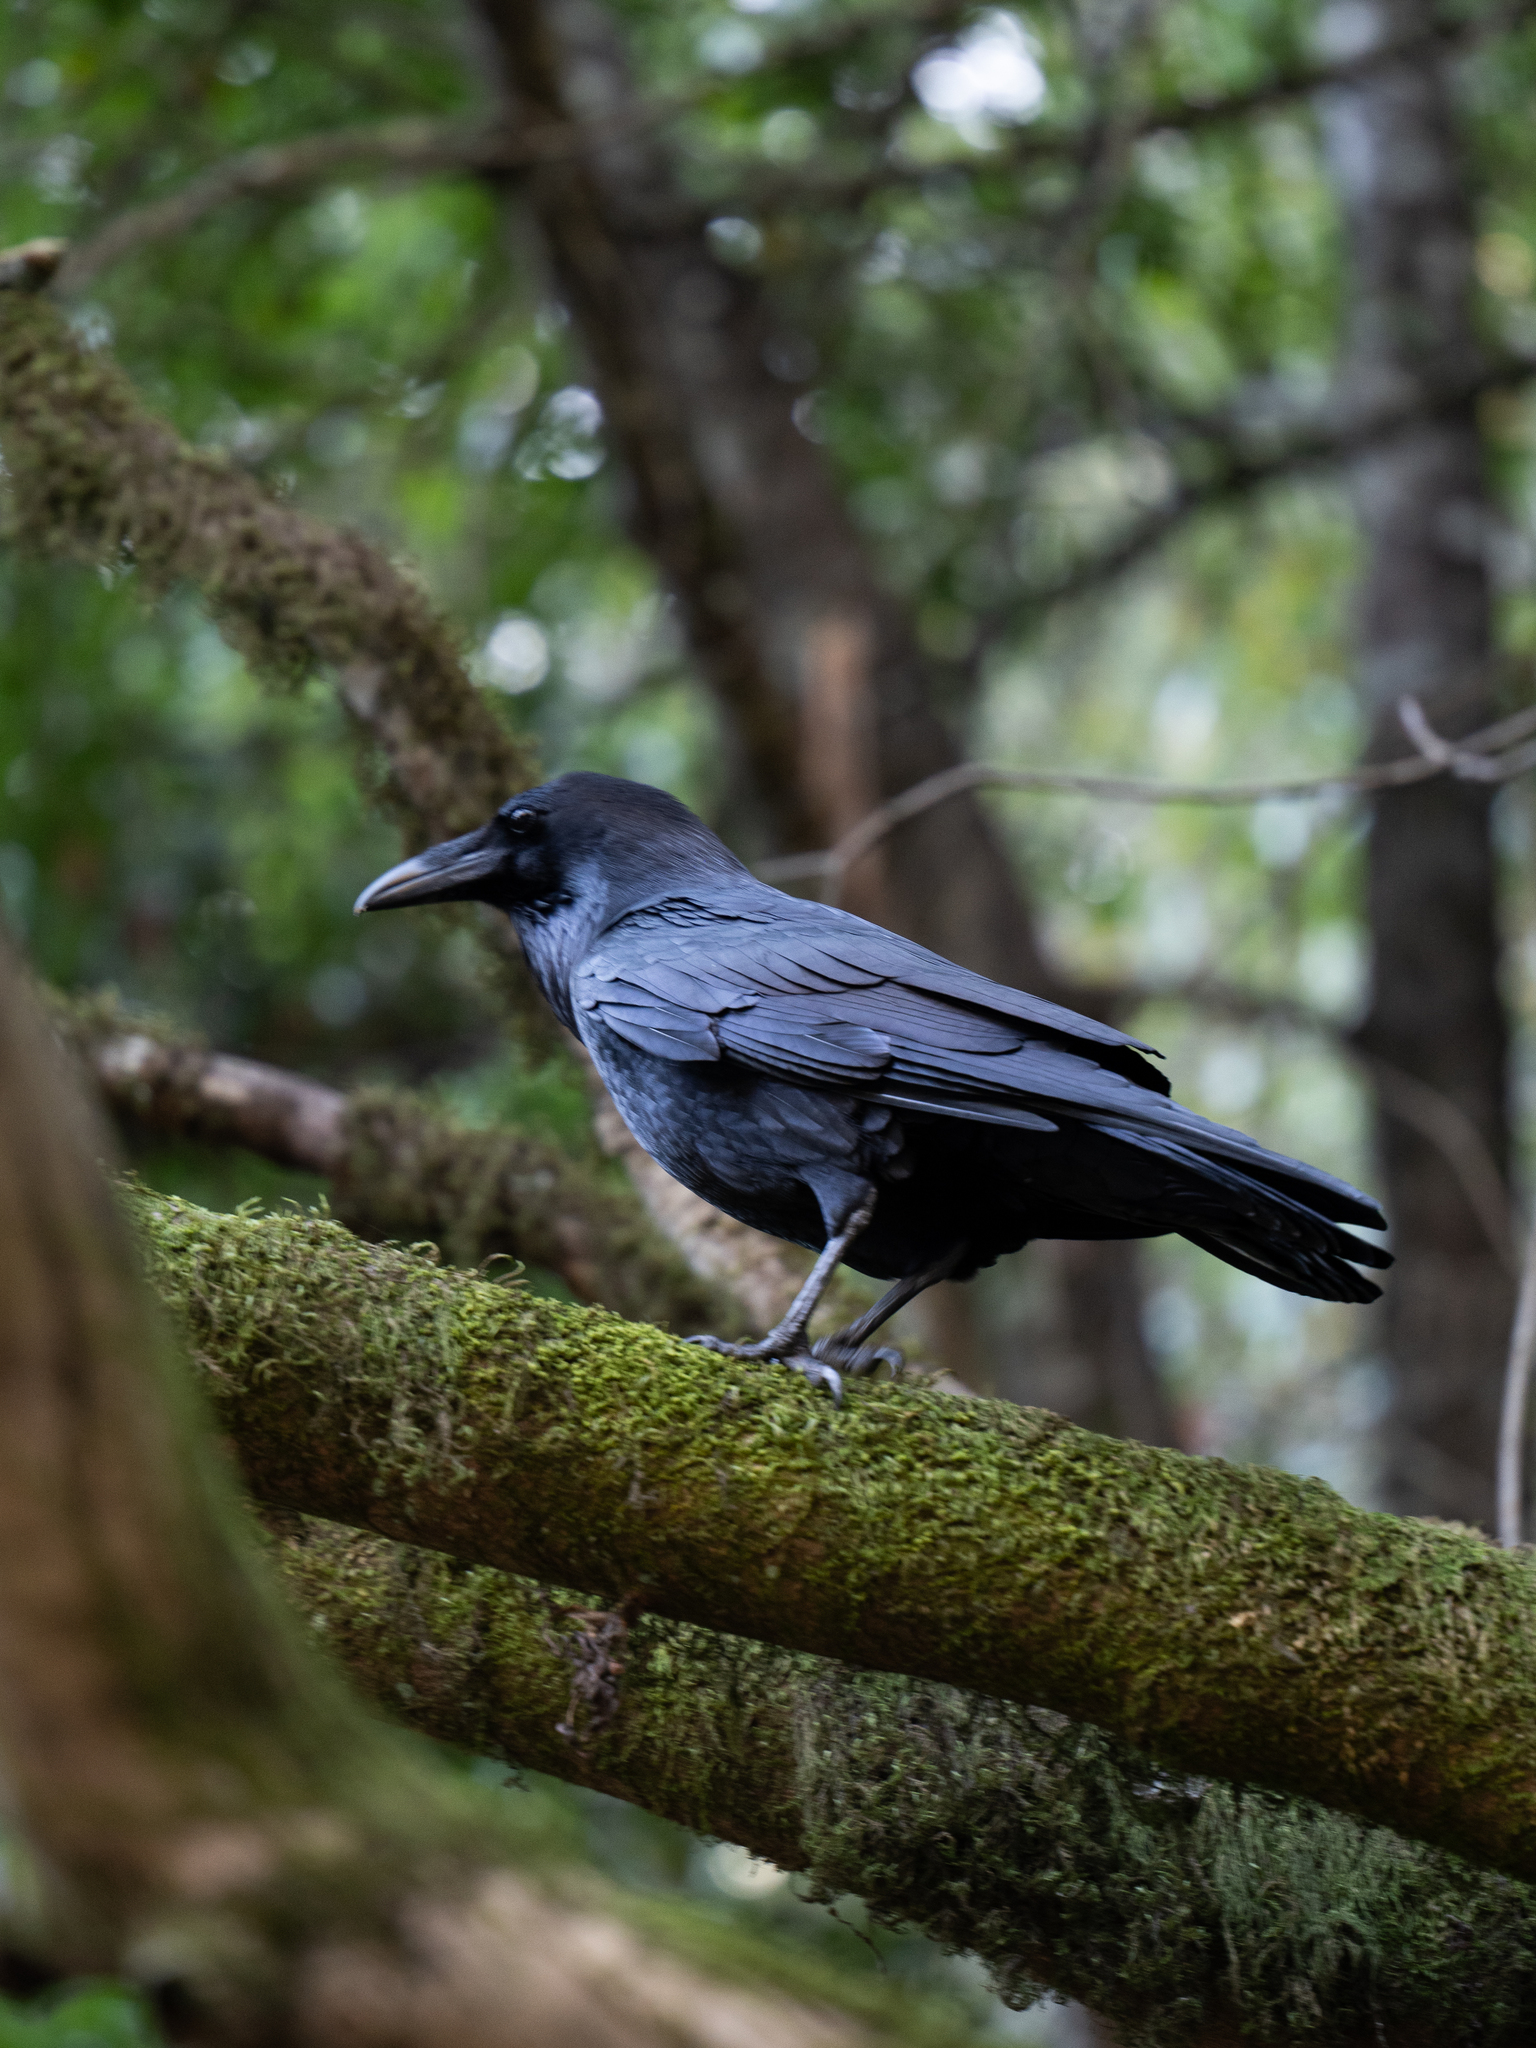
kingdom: Animalia
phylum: Chordata
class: Aves
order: Passeriformes
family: Corvidae
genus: Corvus
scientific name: Corvus corax
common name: Common raven
